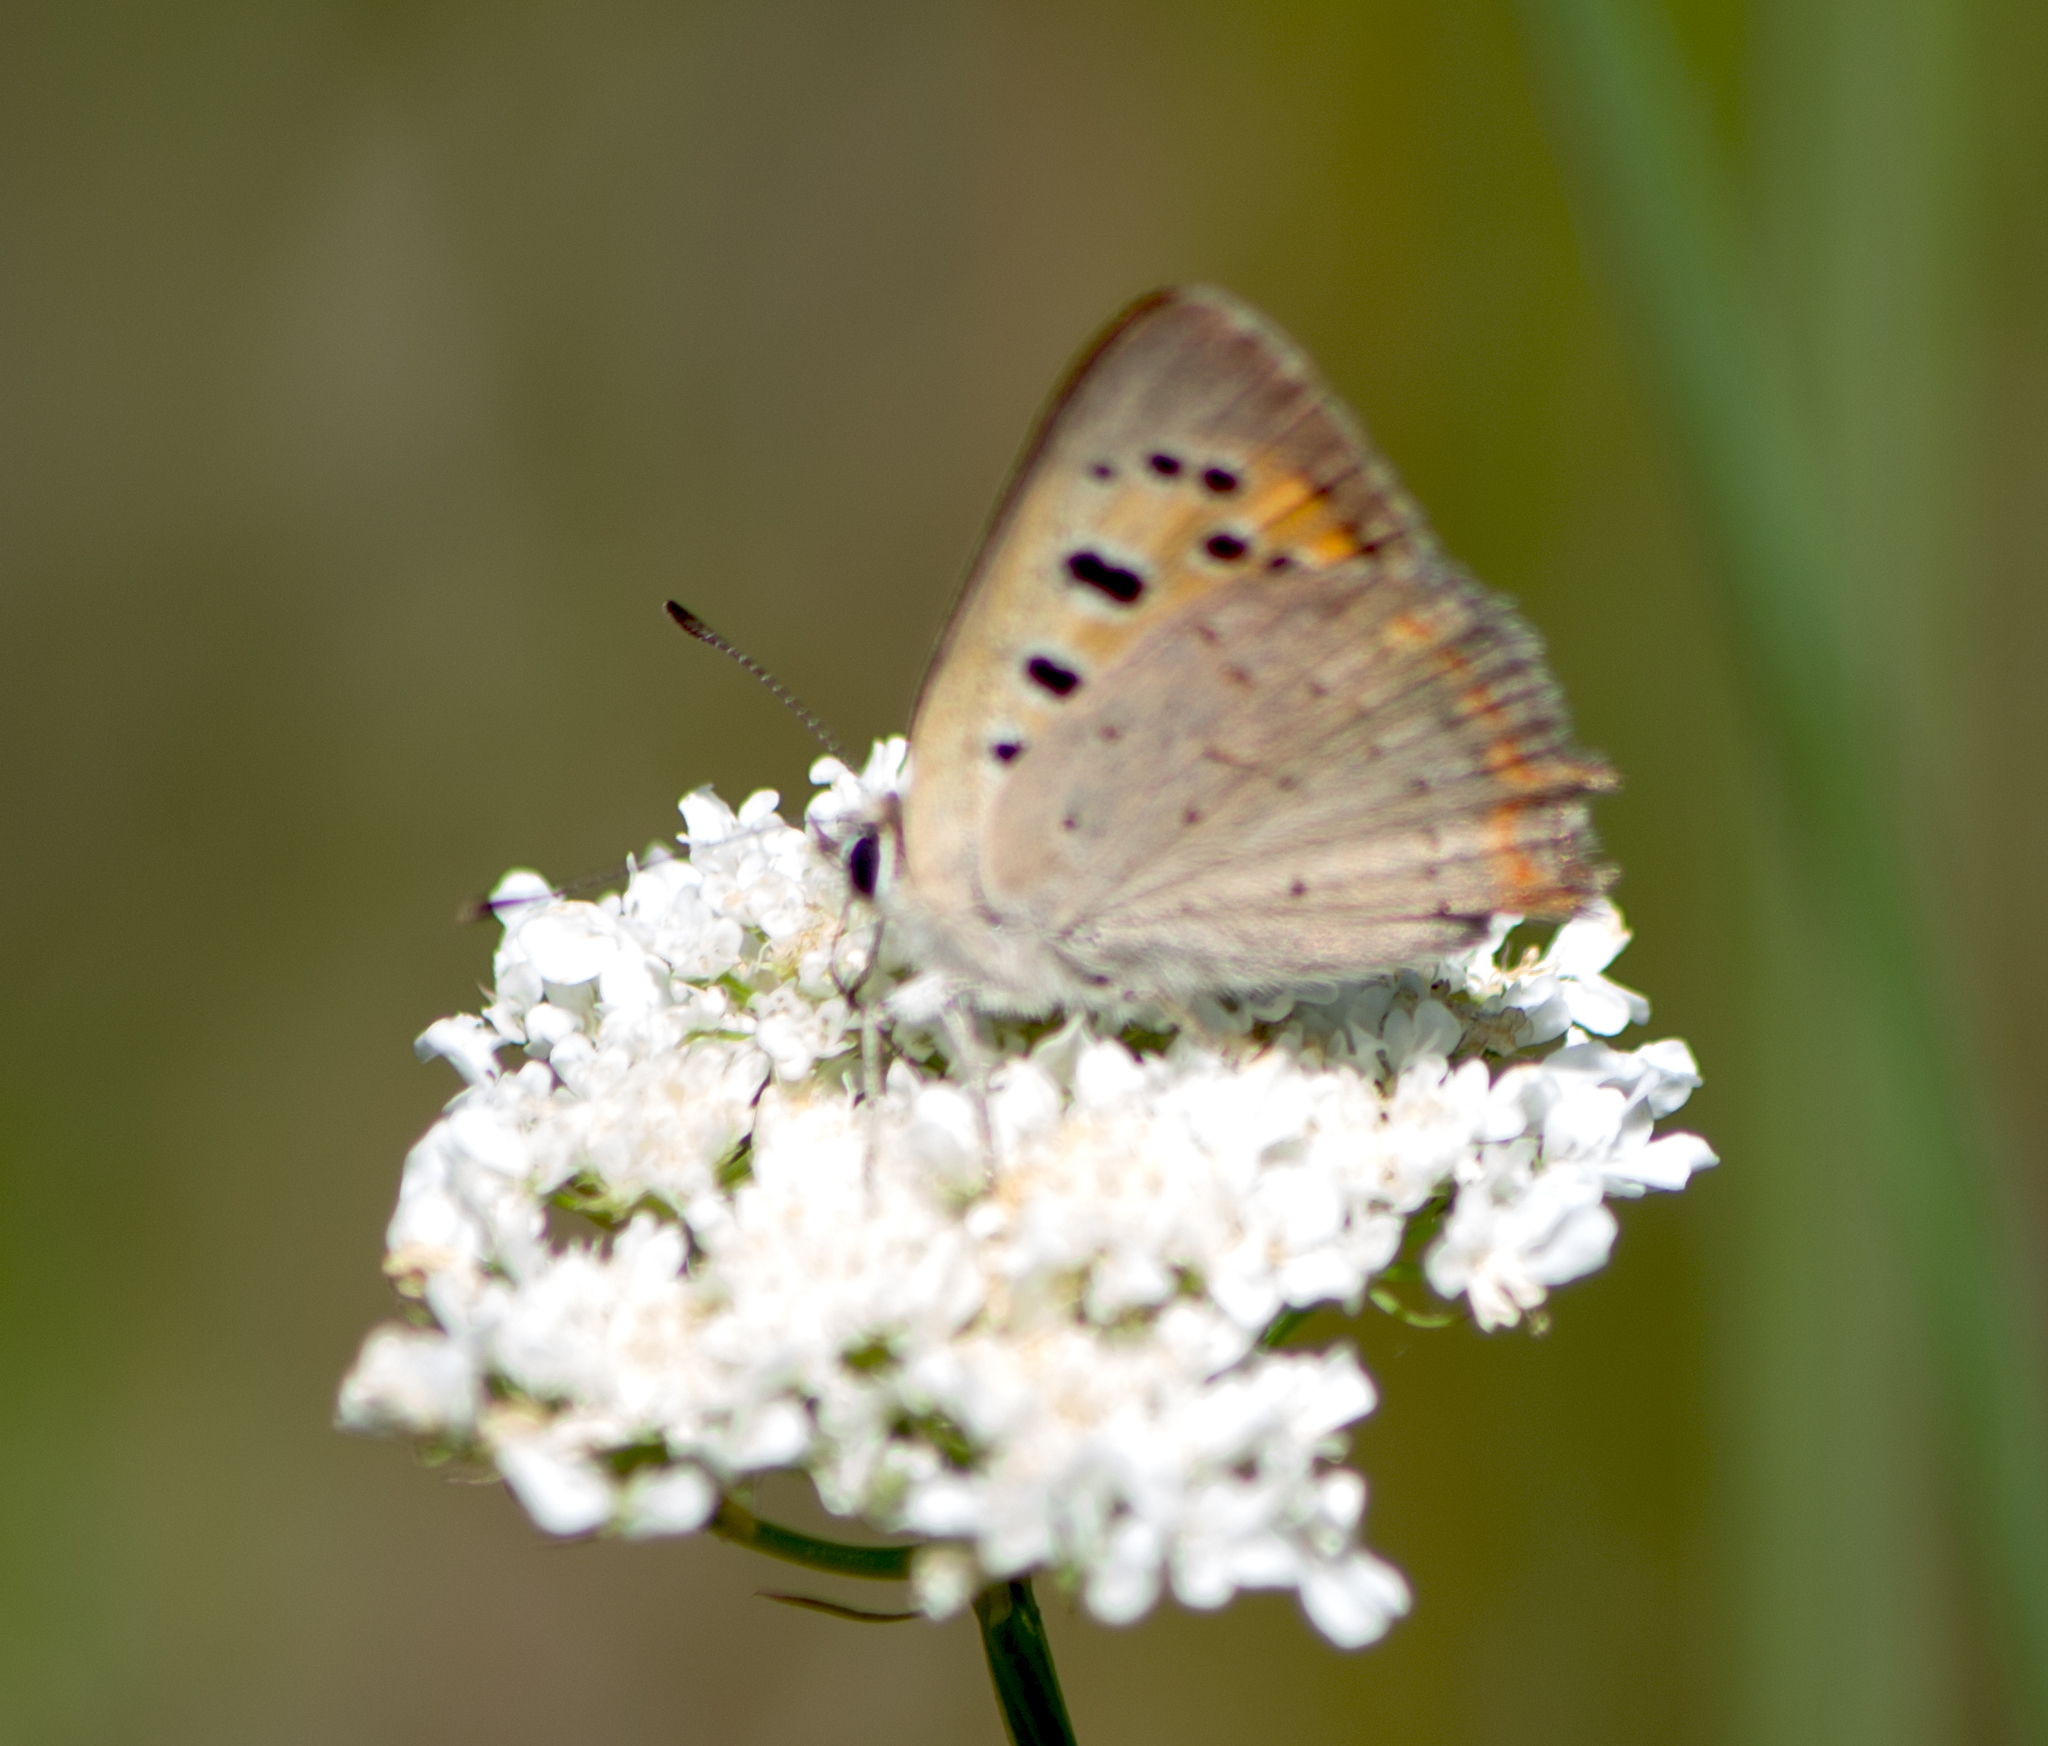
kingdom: Animalia
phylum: Arthropoda
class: Insecta
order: Lepidoptera
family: Lycaenidae
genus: Lycaena
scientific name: Lycaena phlaeas
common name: Small copper
